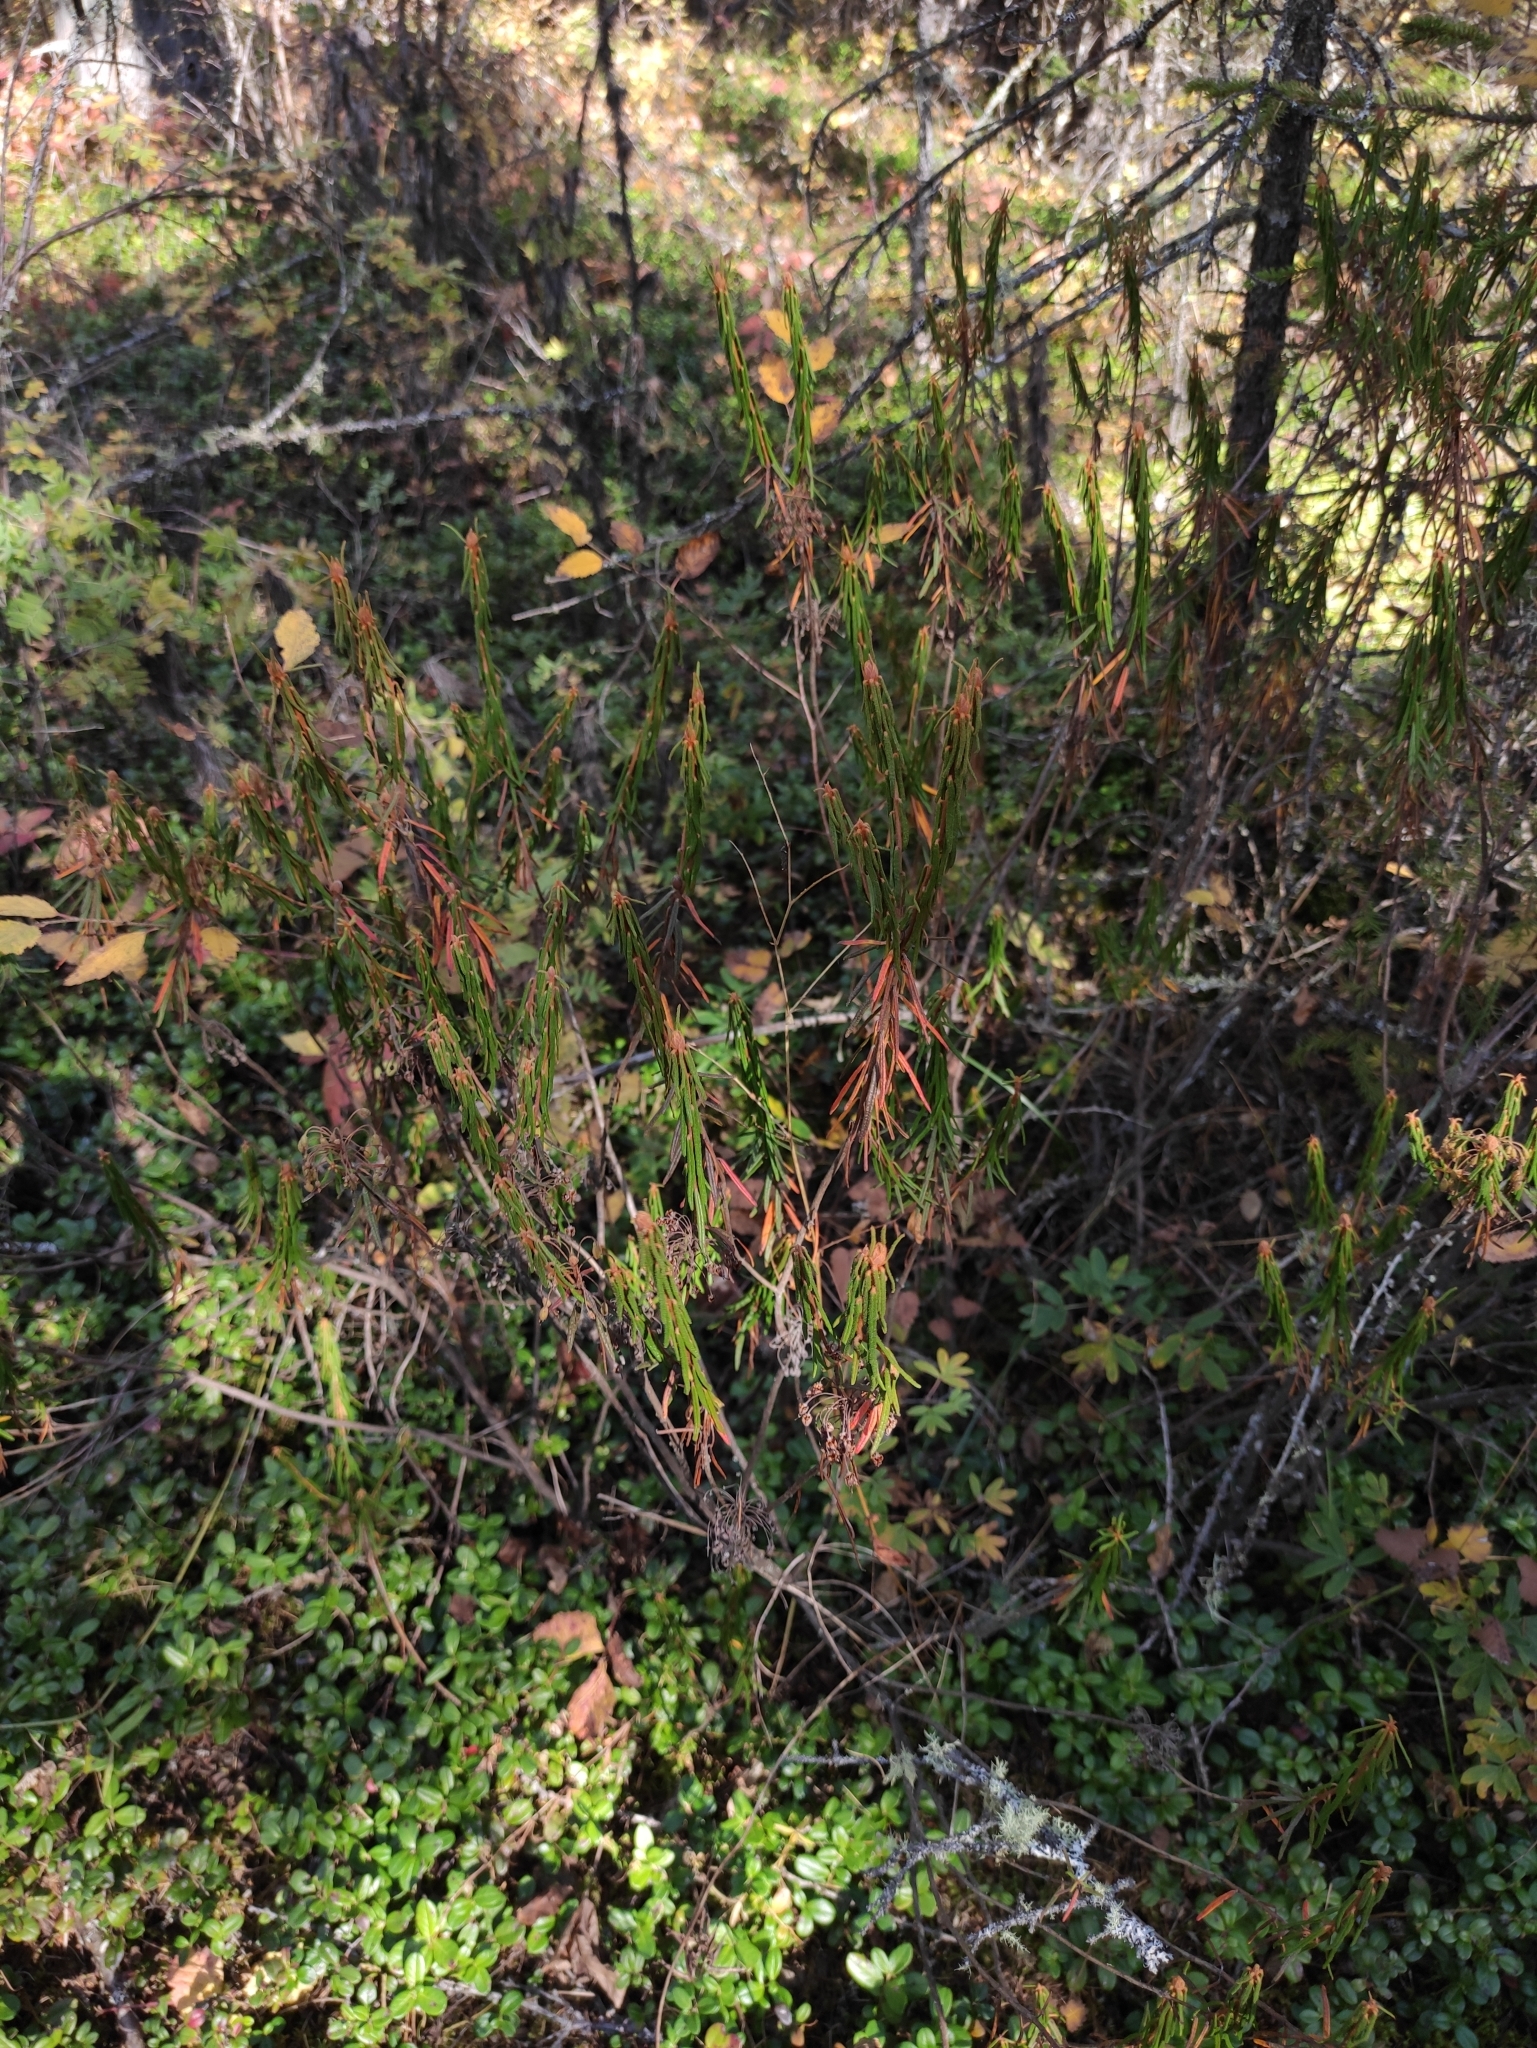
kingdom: Plantae
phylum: Tracheophyta
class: Magnoliopsida
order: Ericales
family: Ericaceae
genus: Rhododendron
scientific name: Rhododendron tomentosum
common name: Marsh labrador tea
